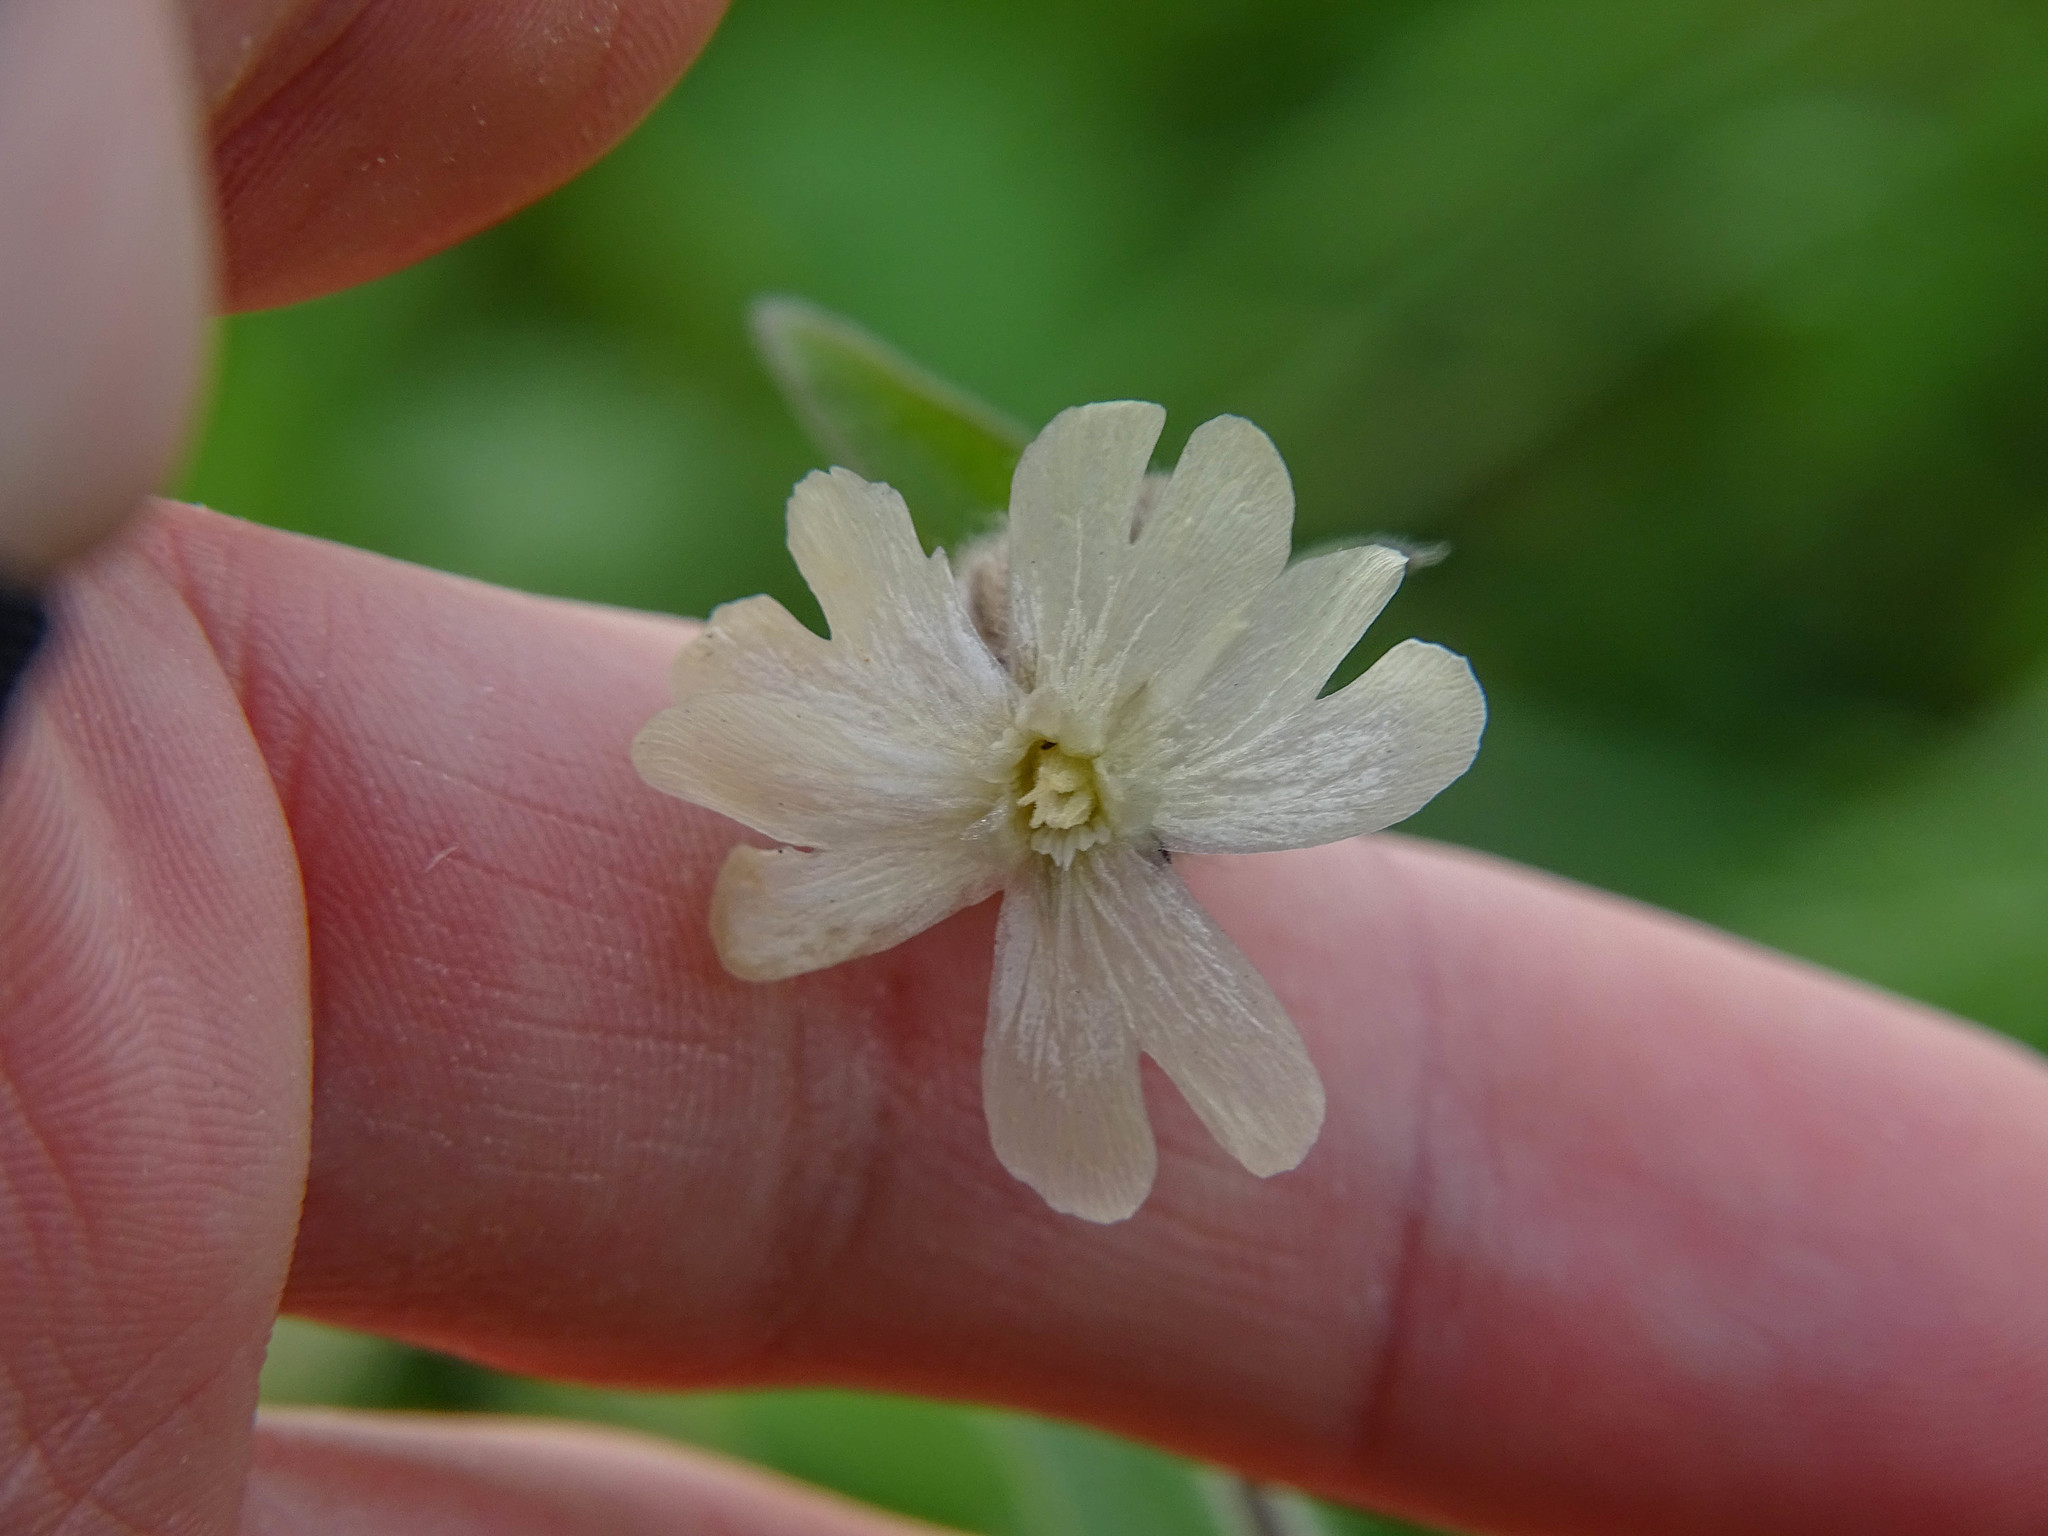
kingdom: Plantae
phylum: Tracheophyta
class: Magnoliopsida
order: Caryophyllales
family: Caryophyllaceae
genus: Silene
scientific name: Silene latifolia
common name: White campion
